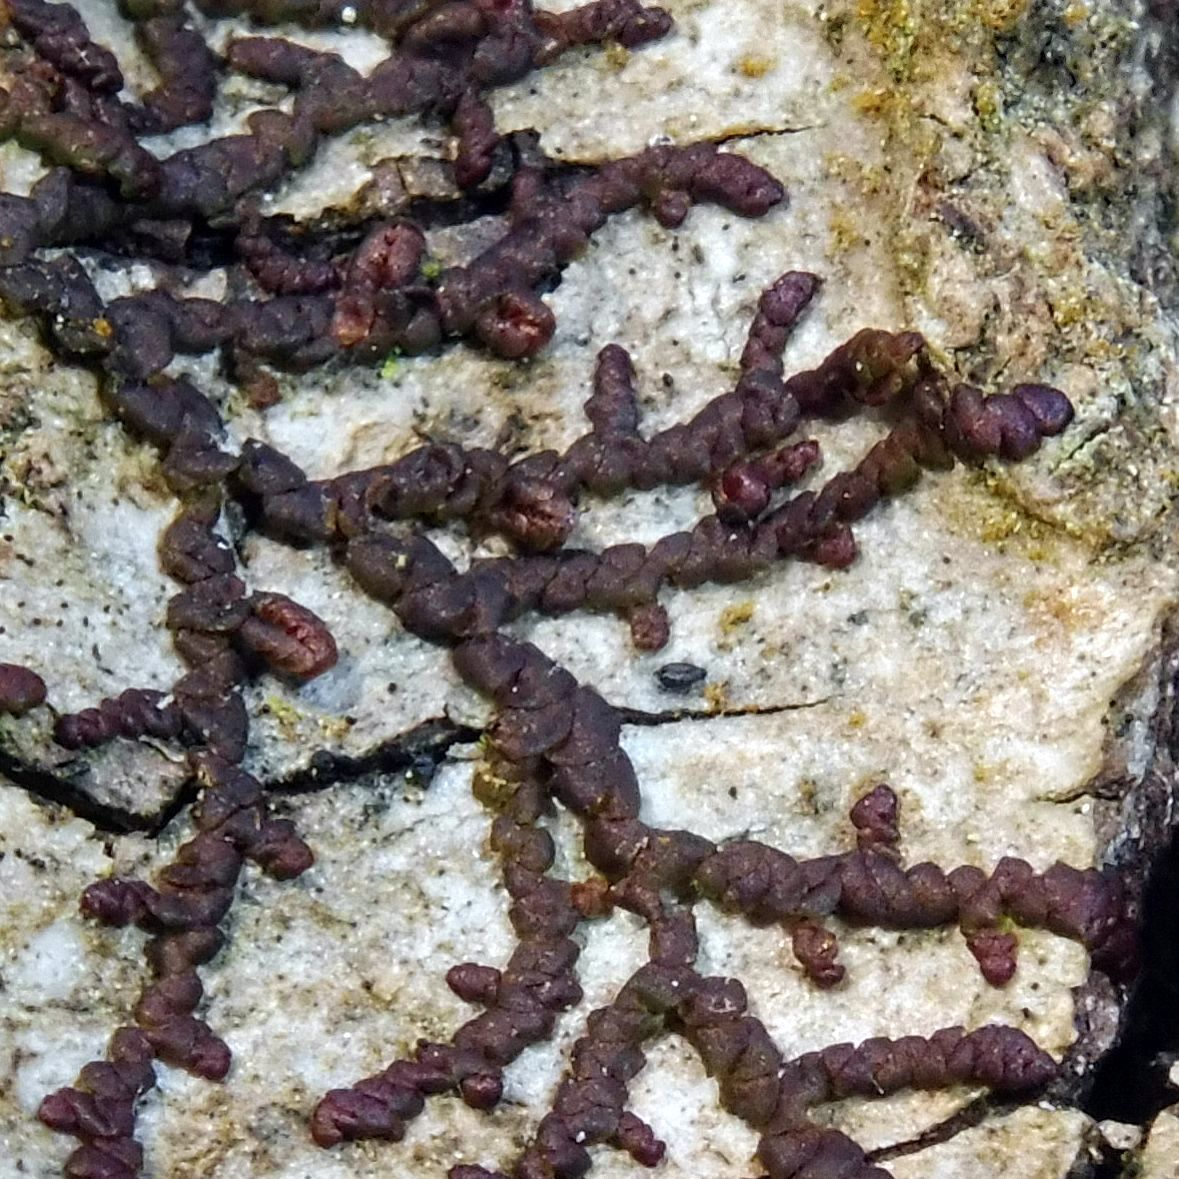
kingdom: Plantae
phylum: Marchantiophyta
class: Jungermanniopsida
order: Porellales
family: Frullaniaceae
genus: Frullania
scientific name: Frullania dilatata
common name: Dilated scalewort
